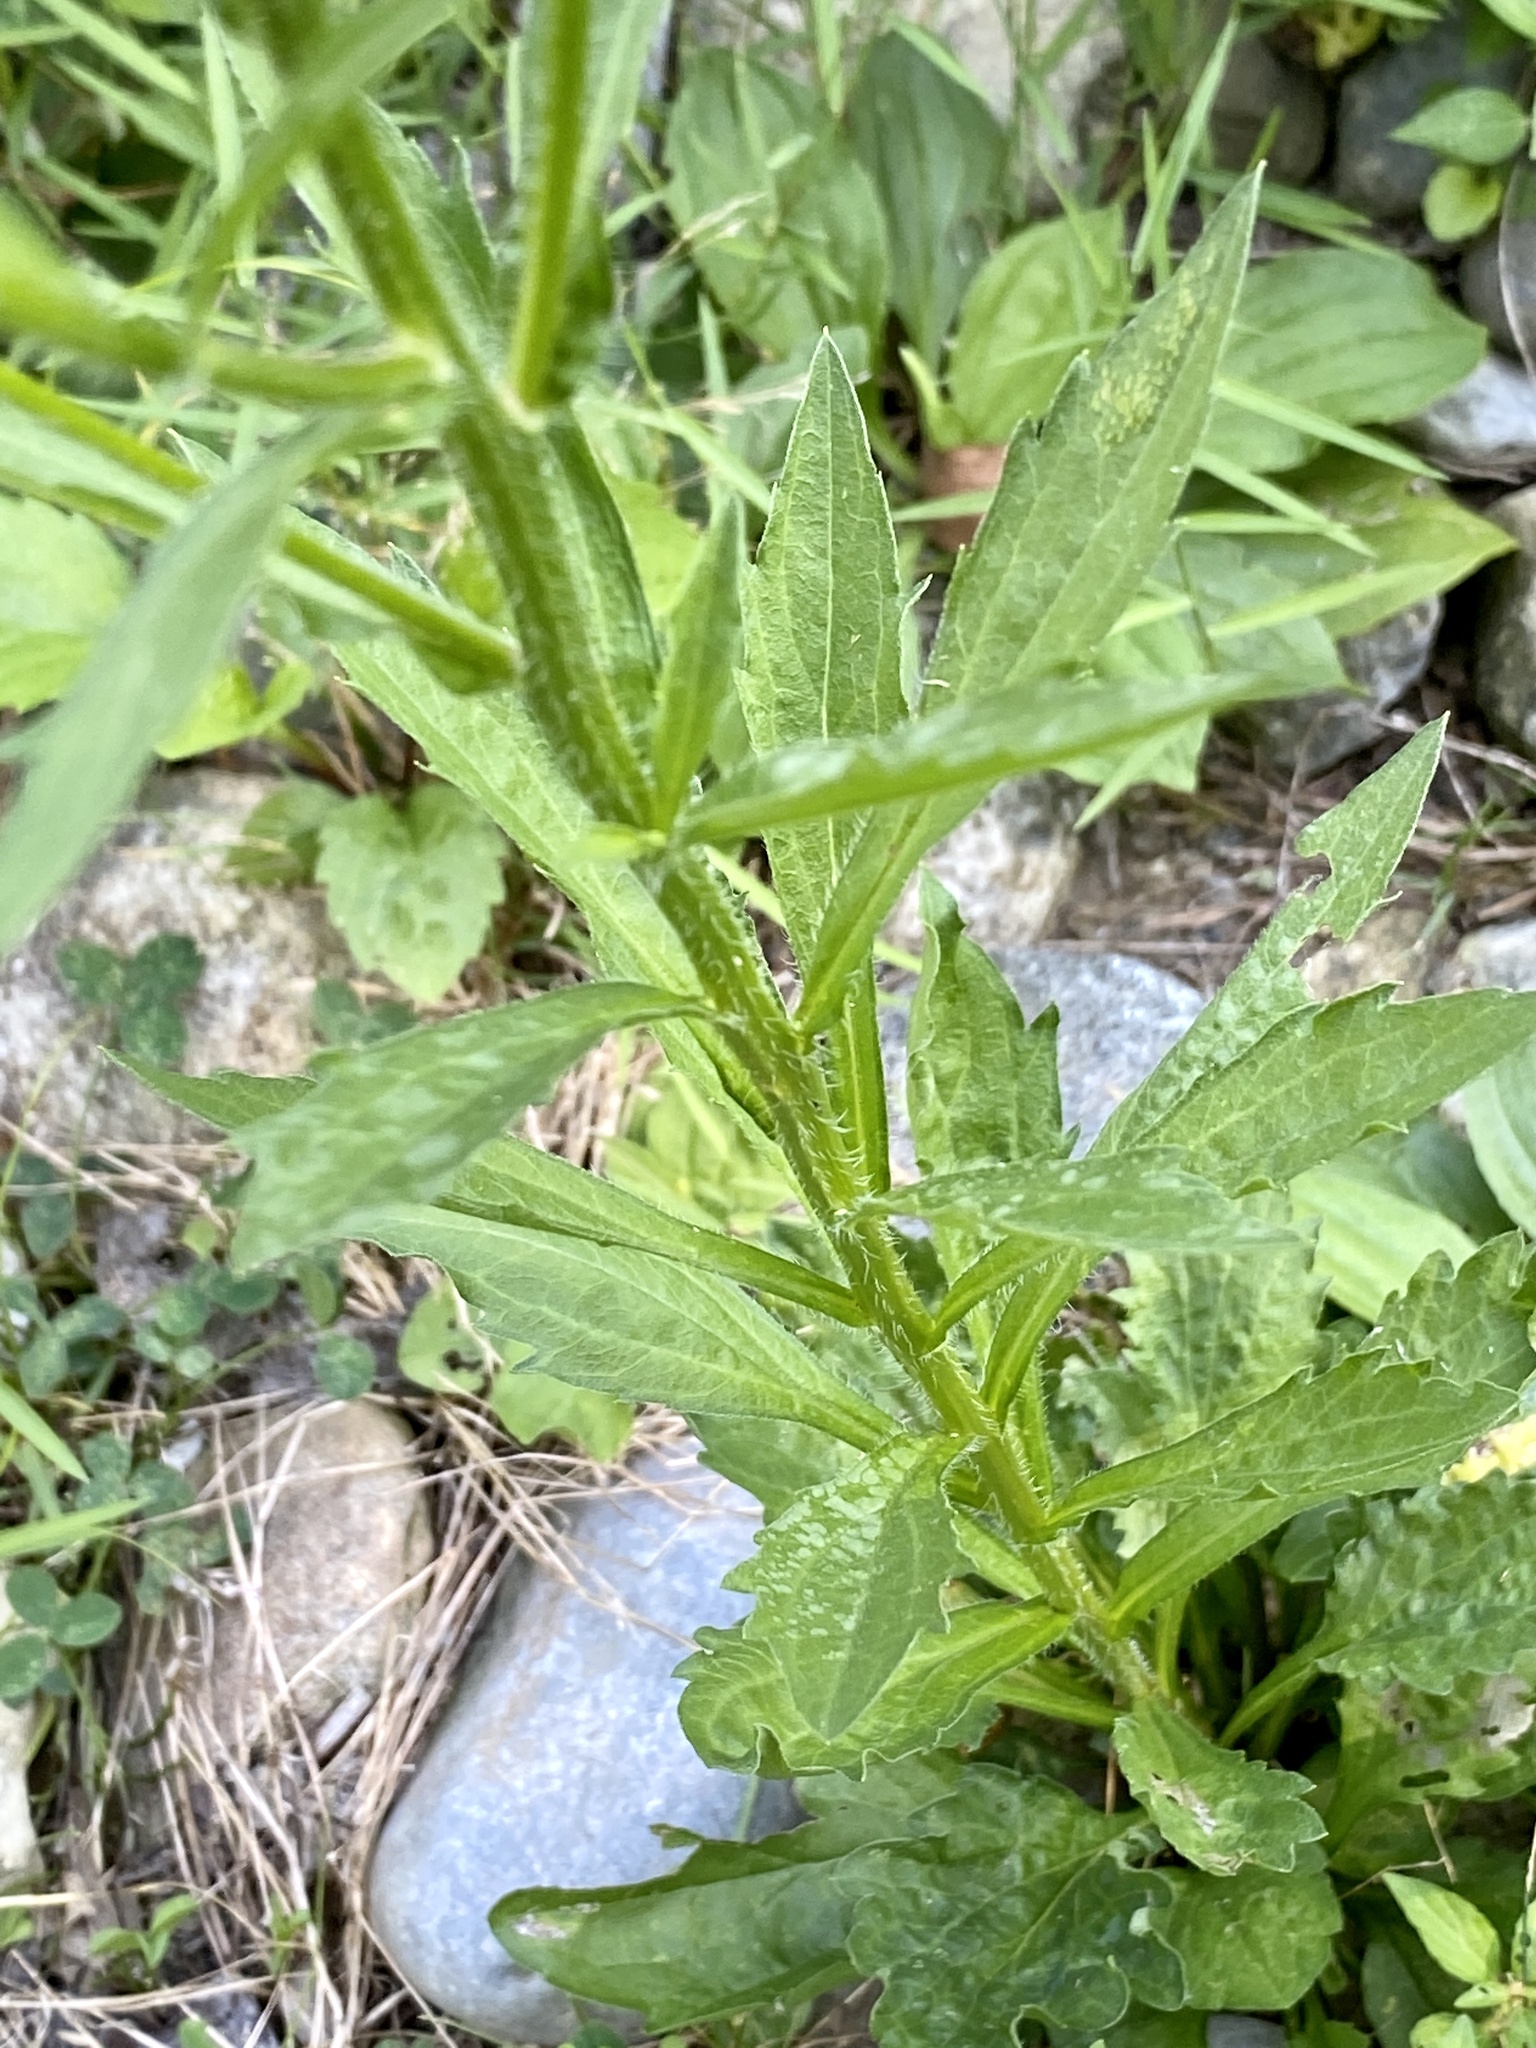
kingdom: Plantae
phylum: Tracheophyta
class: Magnoliopsida
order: Asterales
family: Asteraceae
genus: Erigeron
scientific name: Erigeron annuus
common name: Tall fleabane
